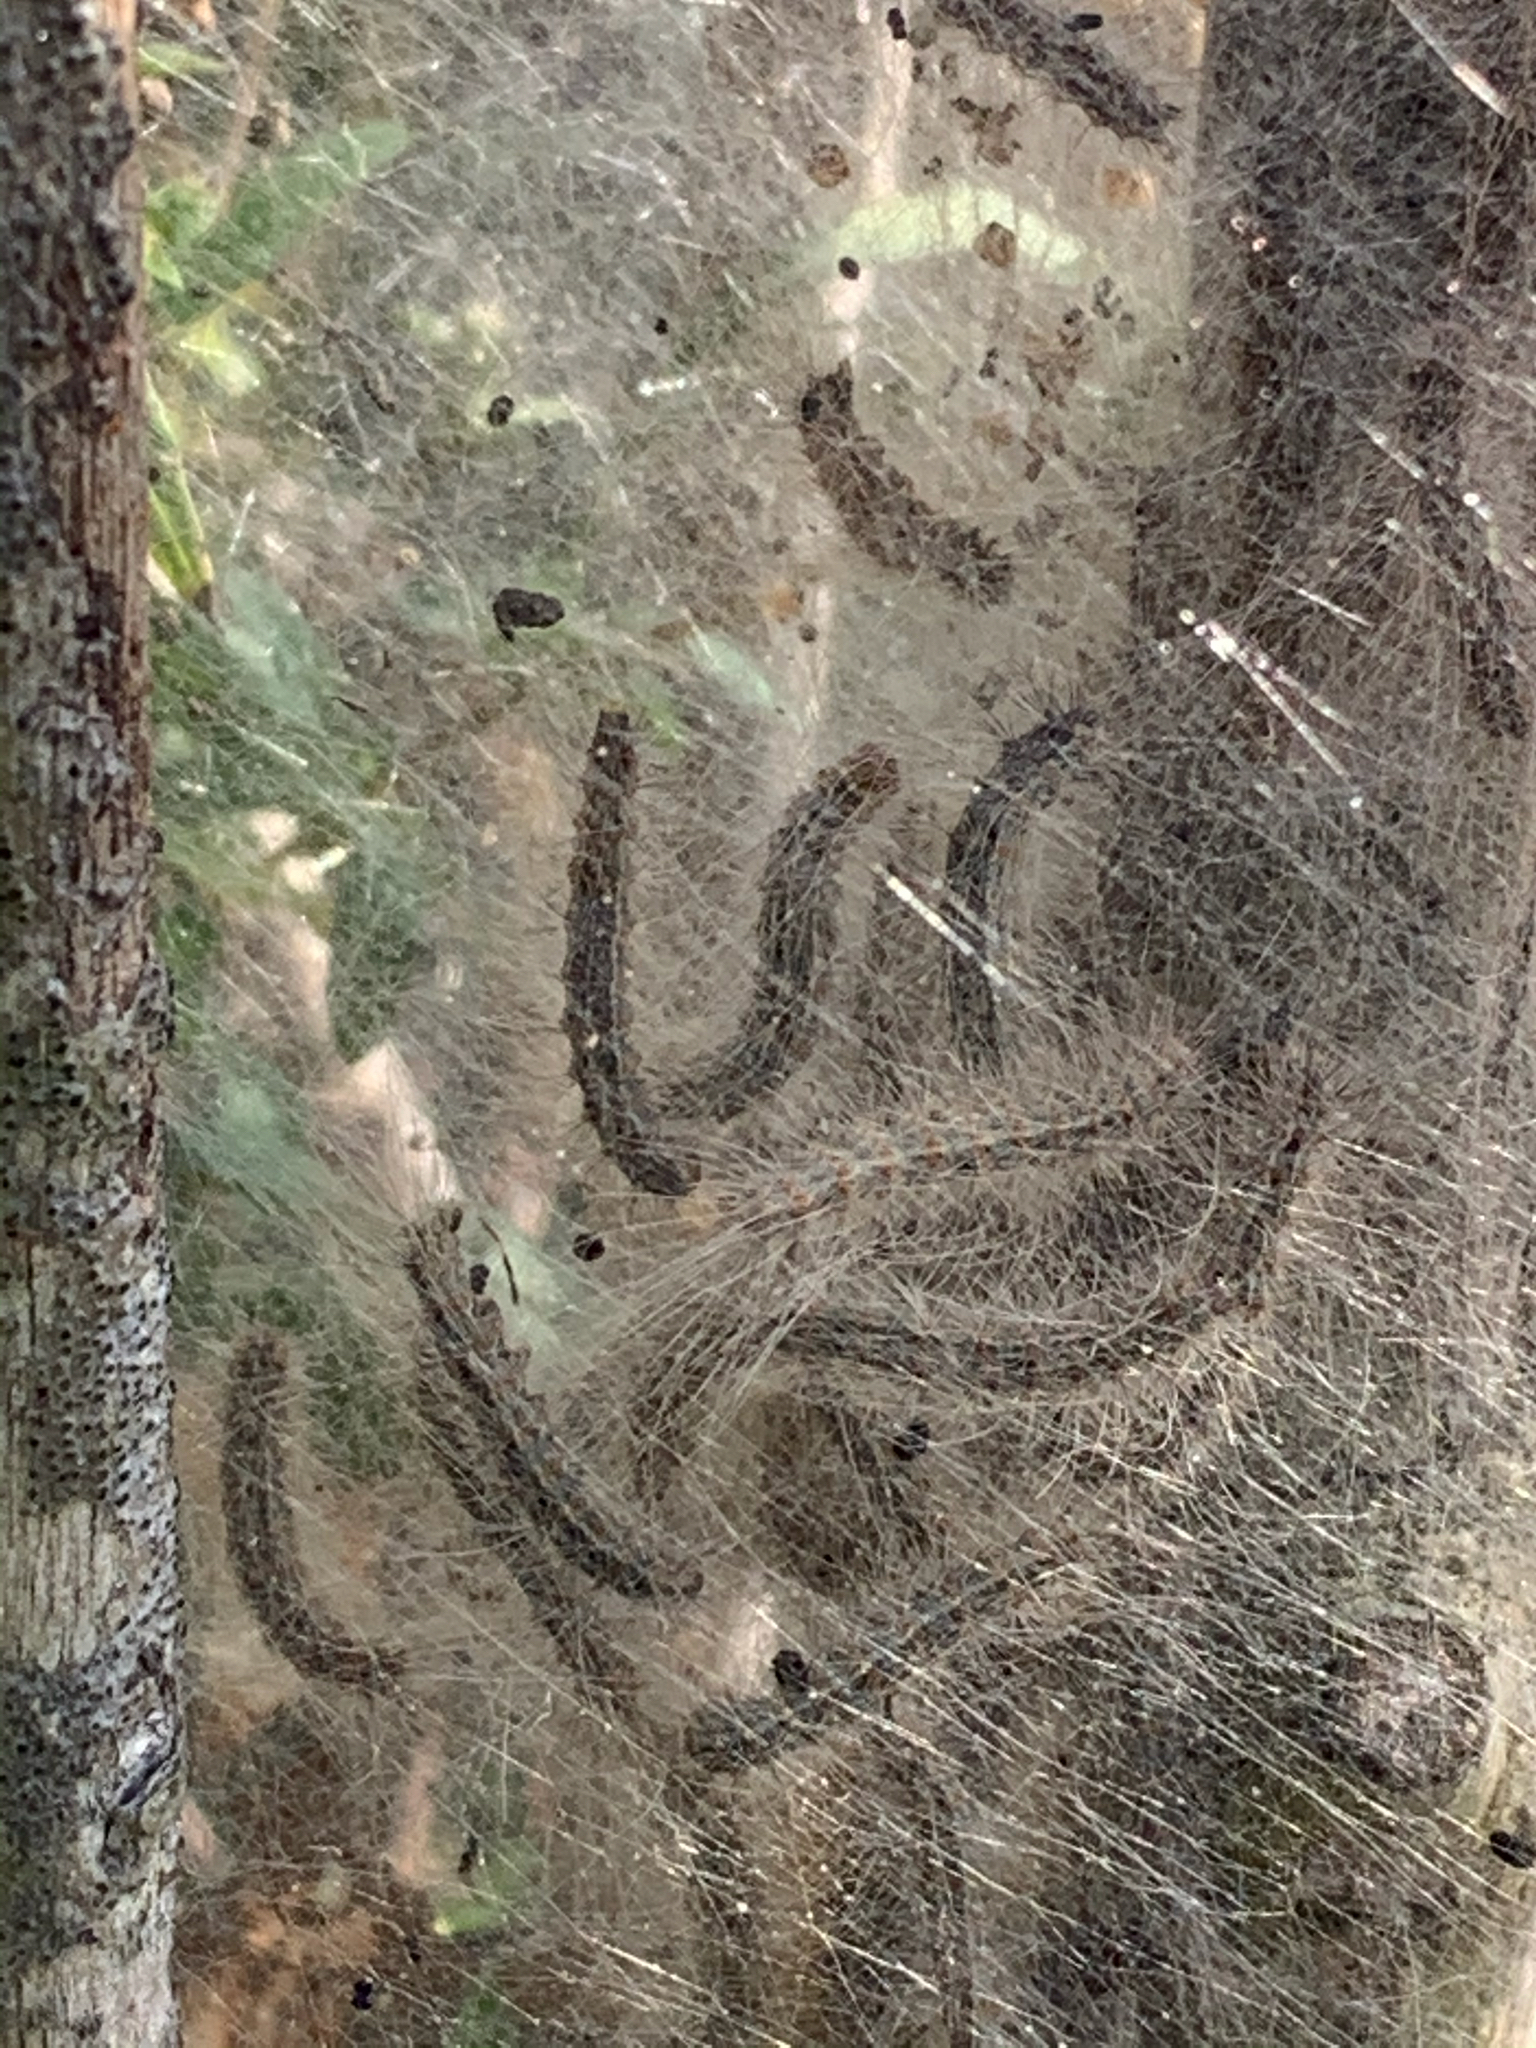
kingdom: Animalia
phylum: Arthropoda
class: Insecta
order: Lepidoptera
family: Erebidae
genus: Hyphantria
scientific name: Hyphantria cunea
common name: American white moth
